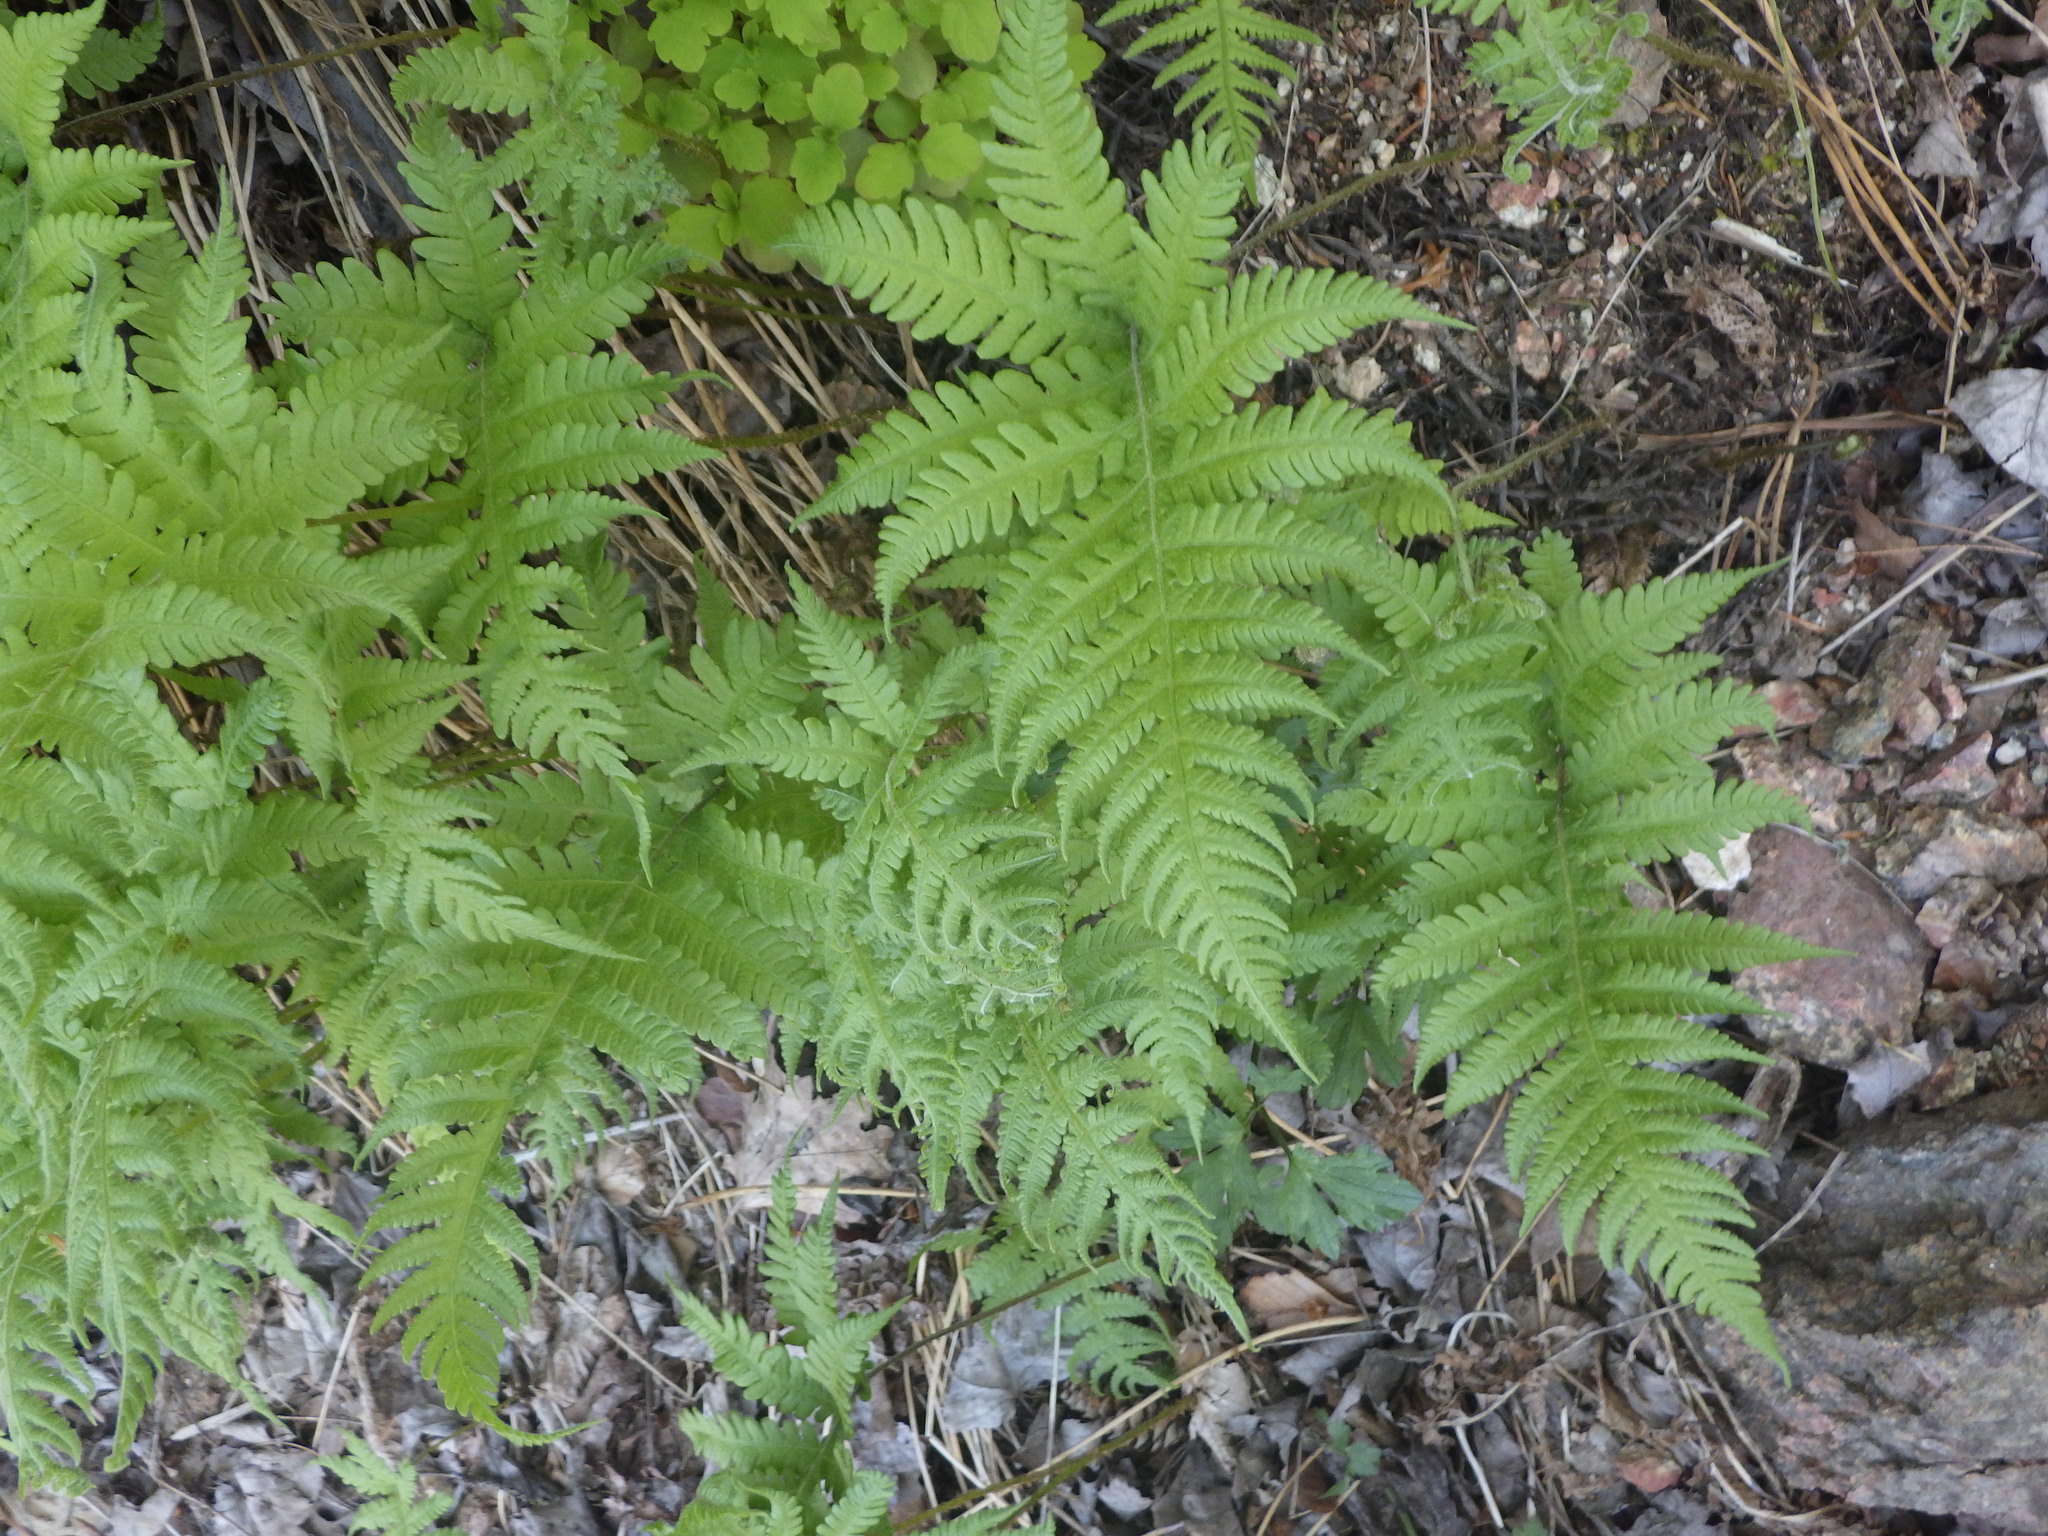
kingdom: Plantae
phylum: Tracheophyta
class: Polypodiopsida
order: Polypodiales
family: Thelypteridaceae
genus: Phegopteris
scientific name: Phegopteris connectilis
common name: Beech fern
